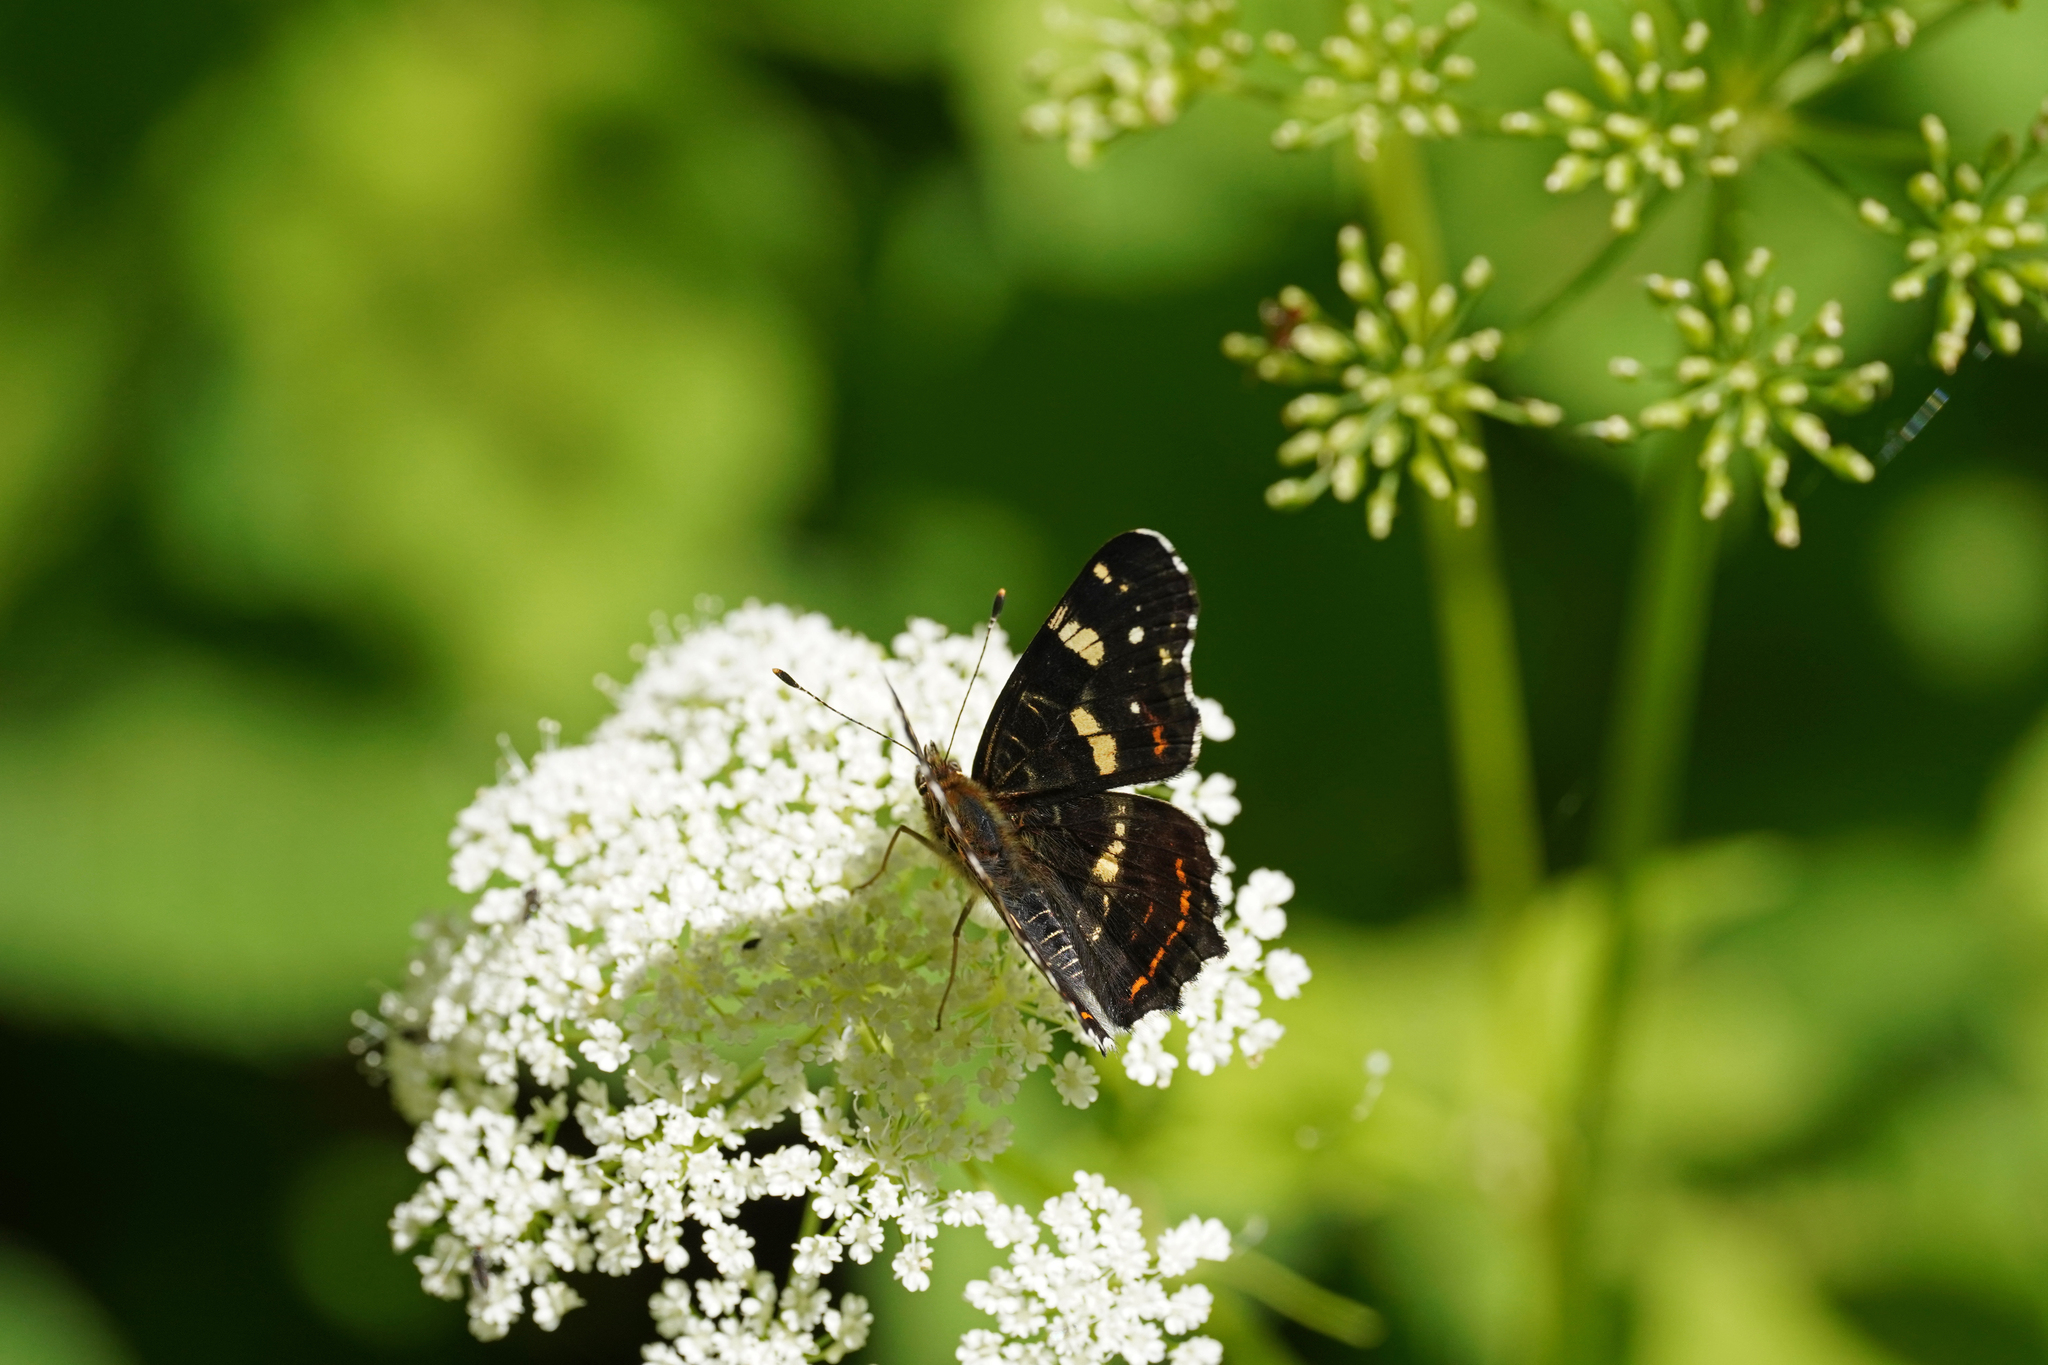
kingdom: Animalia
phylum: Arthropoda
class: Insecta
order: Lepidoptera
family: Nymphalidae
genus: Araschnia
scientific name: Araschnia levana
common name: Map butterfly
